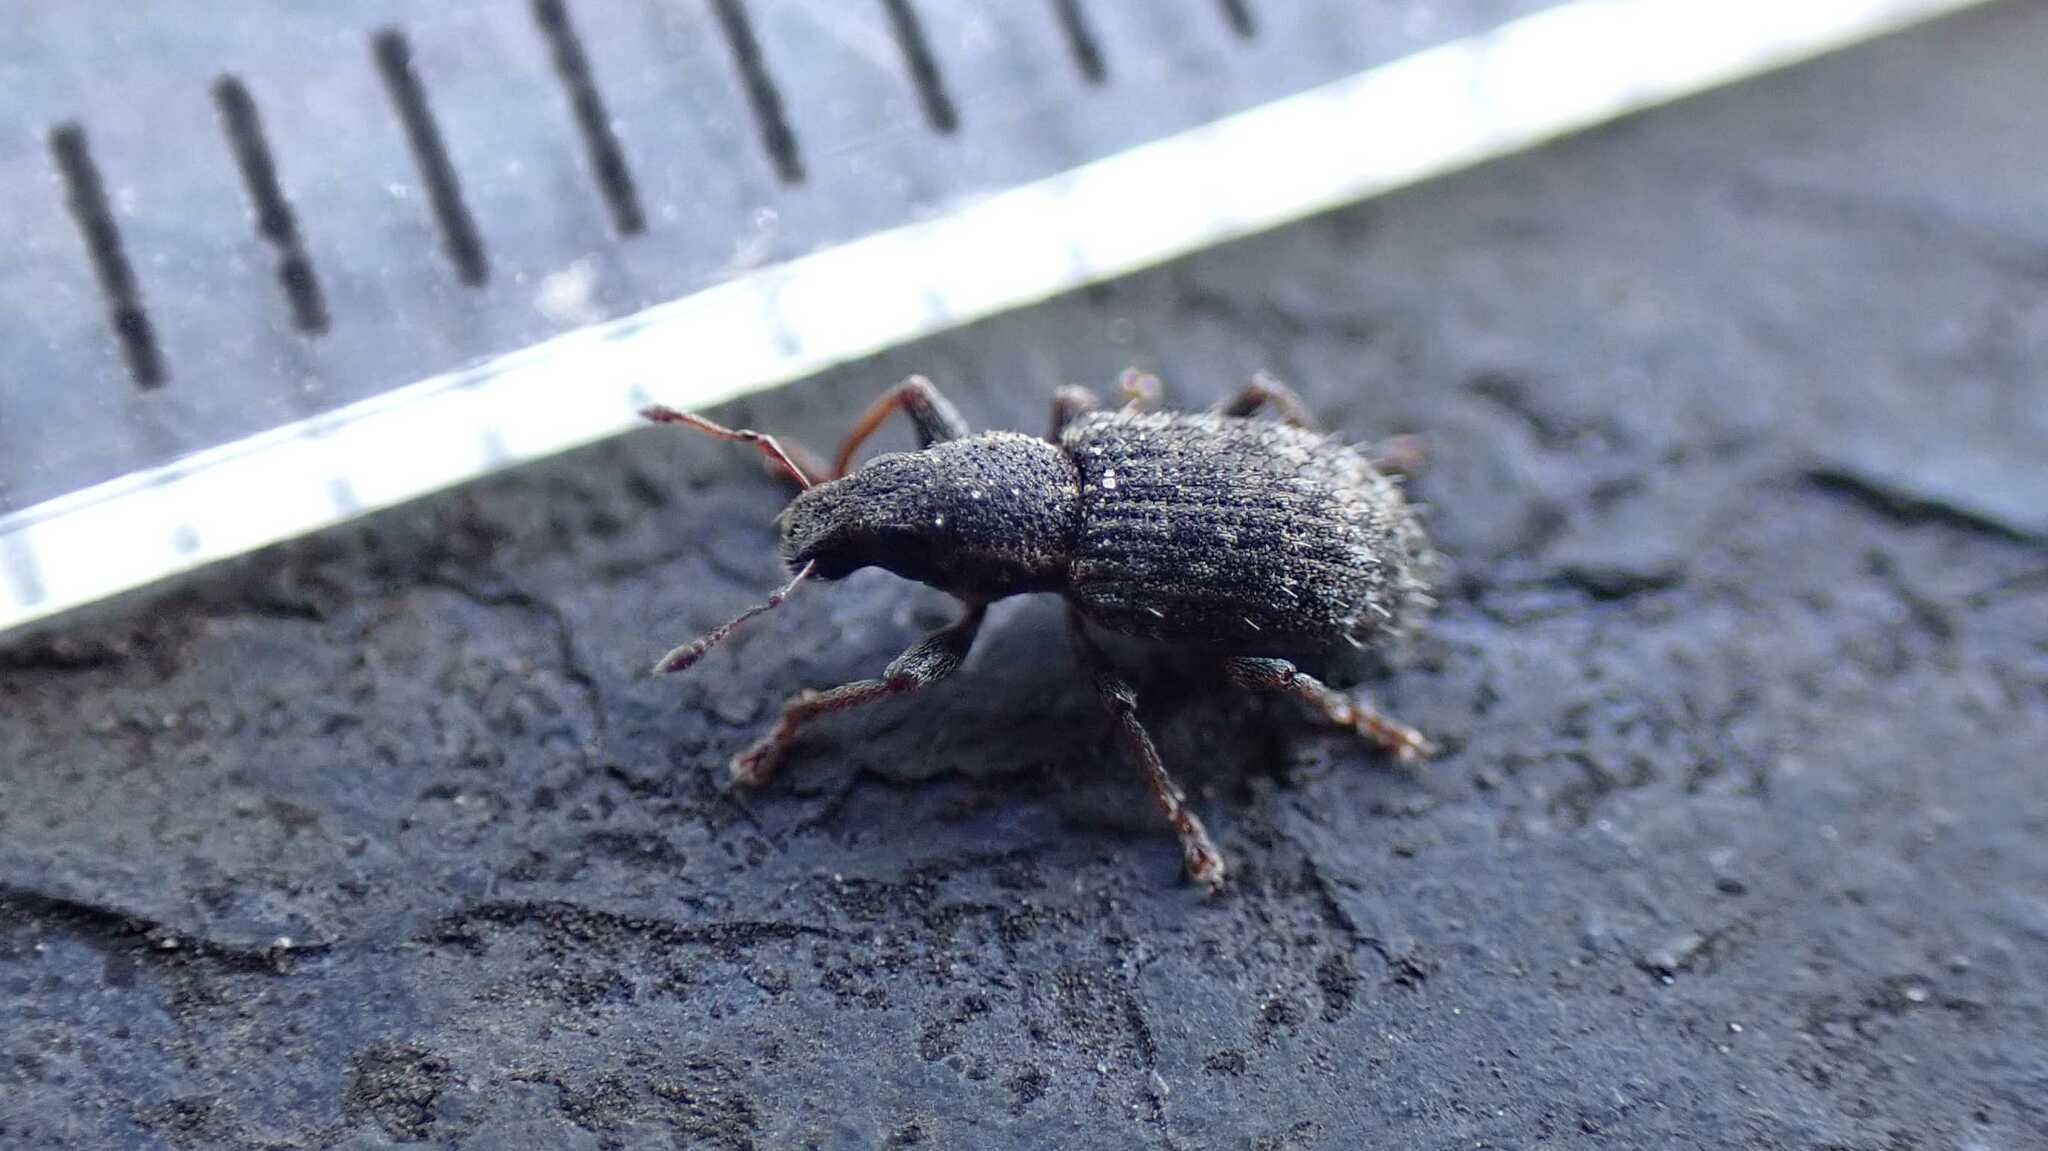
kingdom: Animalia
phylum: Arthropoda
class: Insecta
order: Coleoptera
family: Curculionidae
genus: Sitona
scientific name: Sitona hispidulus
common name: Clover weevil
